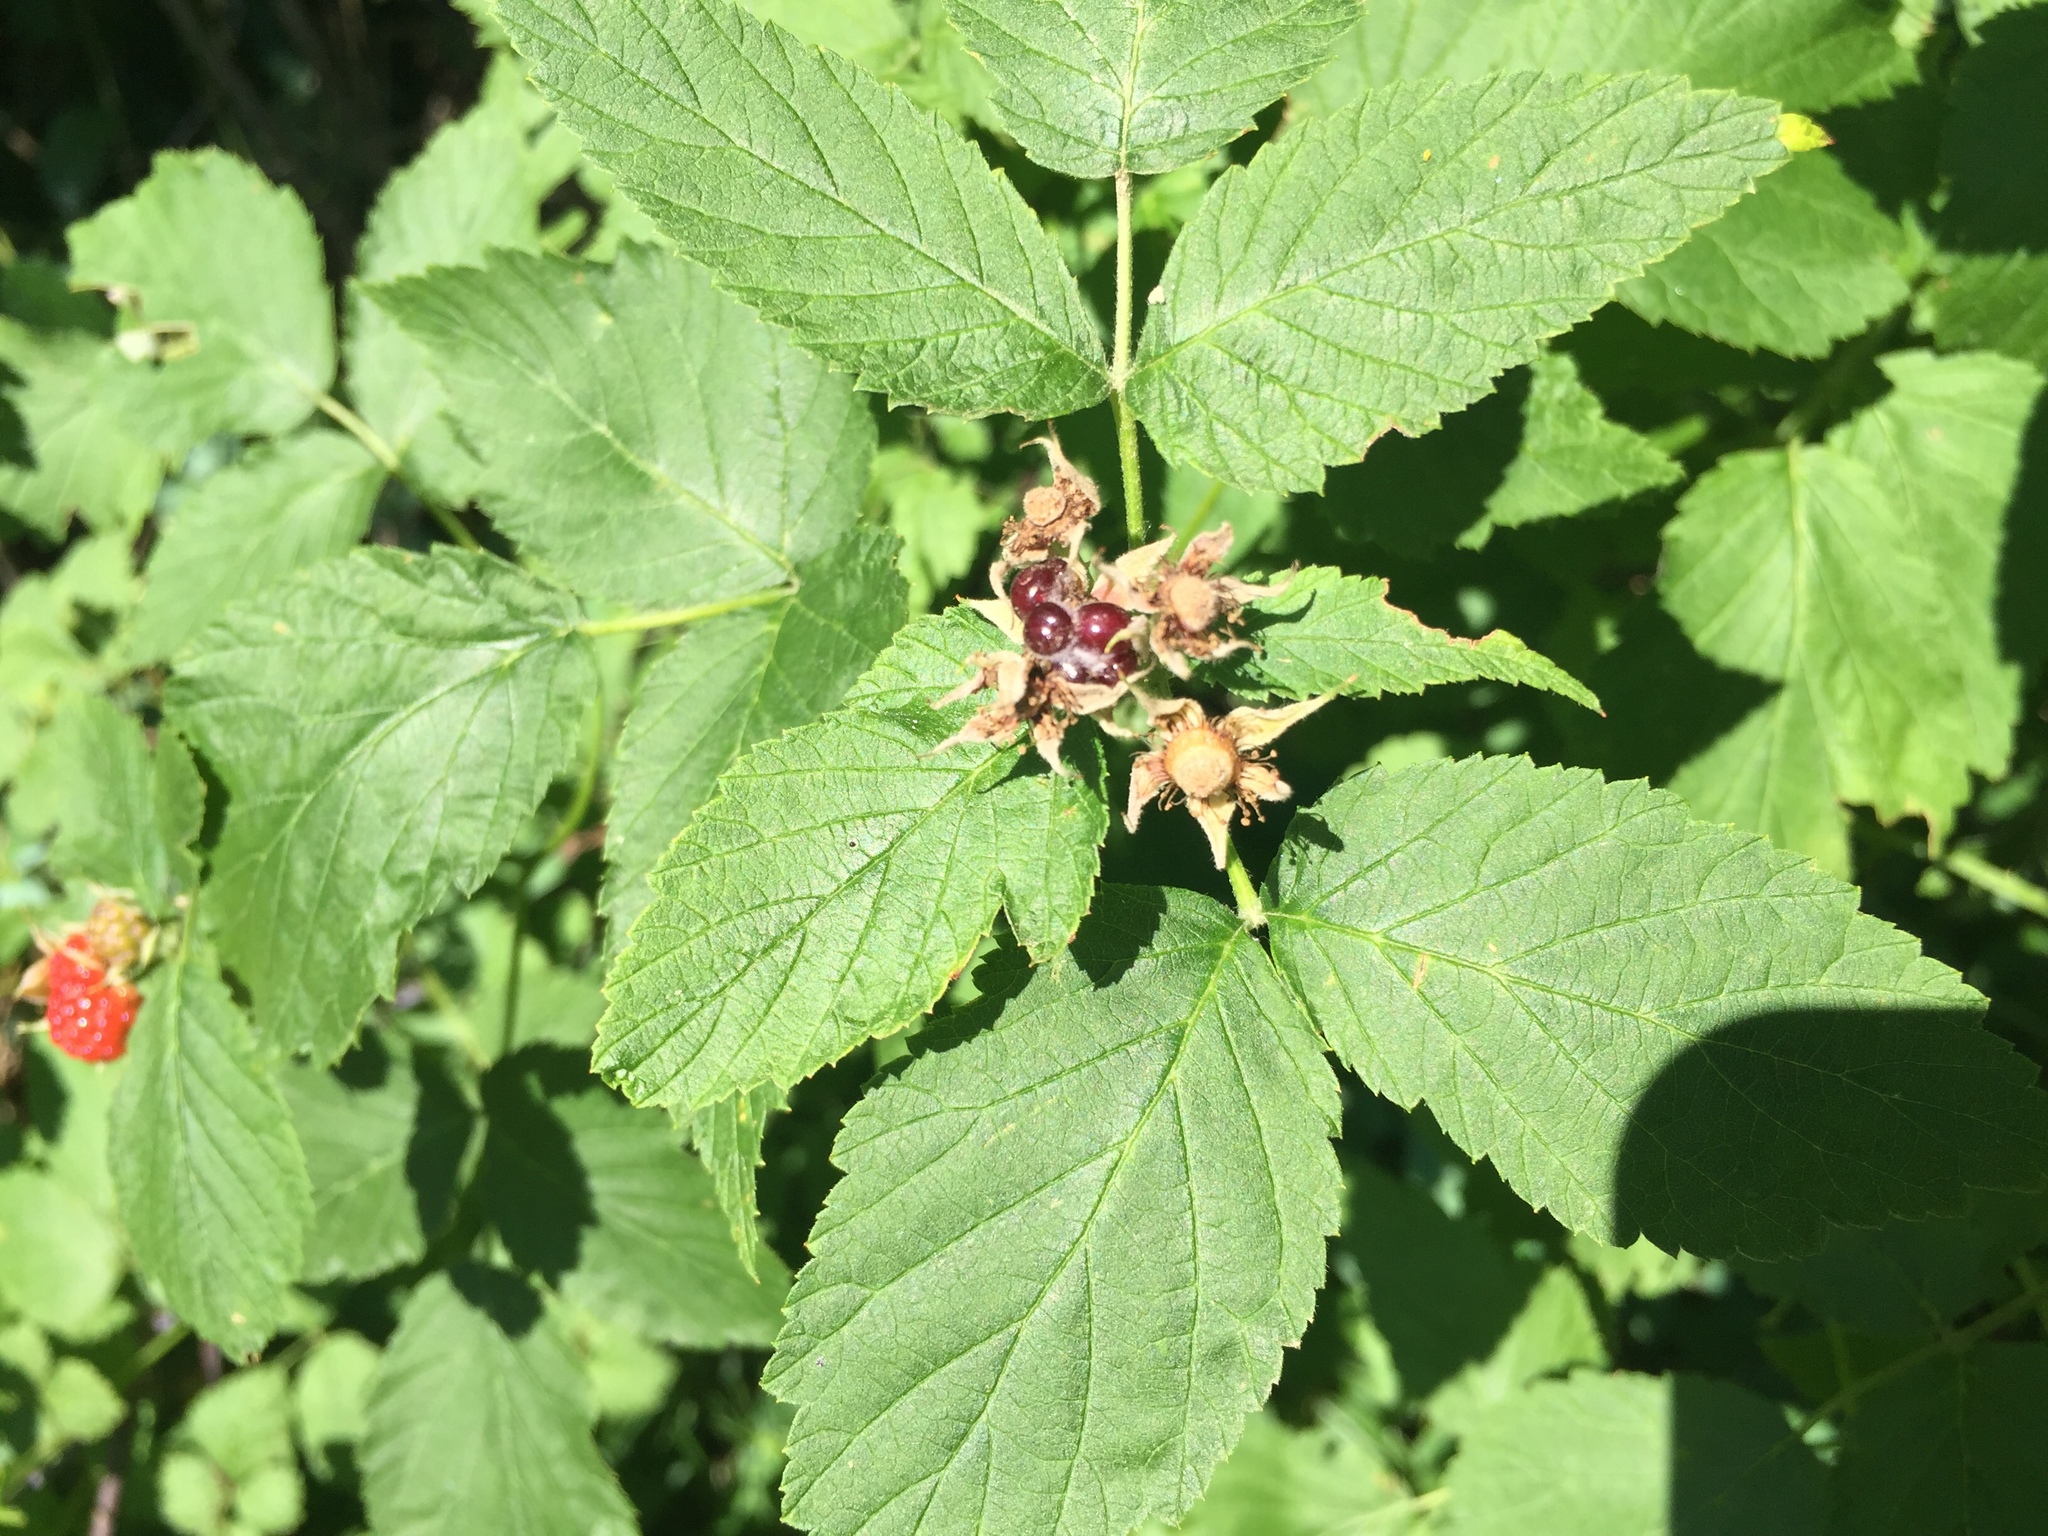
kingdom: Plantae
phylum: Tracheophyta
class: Magnoliopsida
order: Rosales
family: Rosaceae
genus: Rubus
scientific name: Rubus
